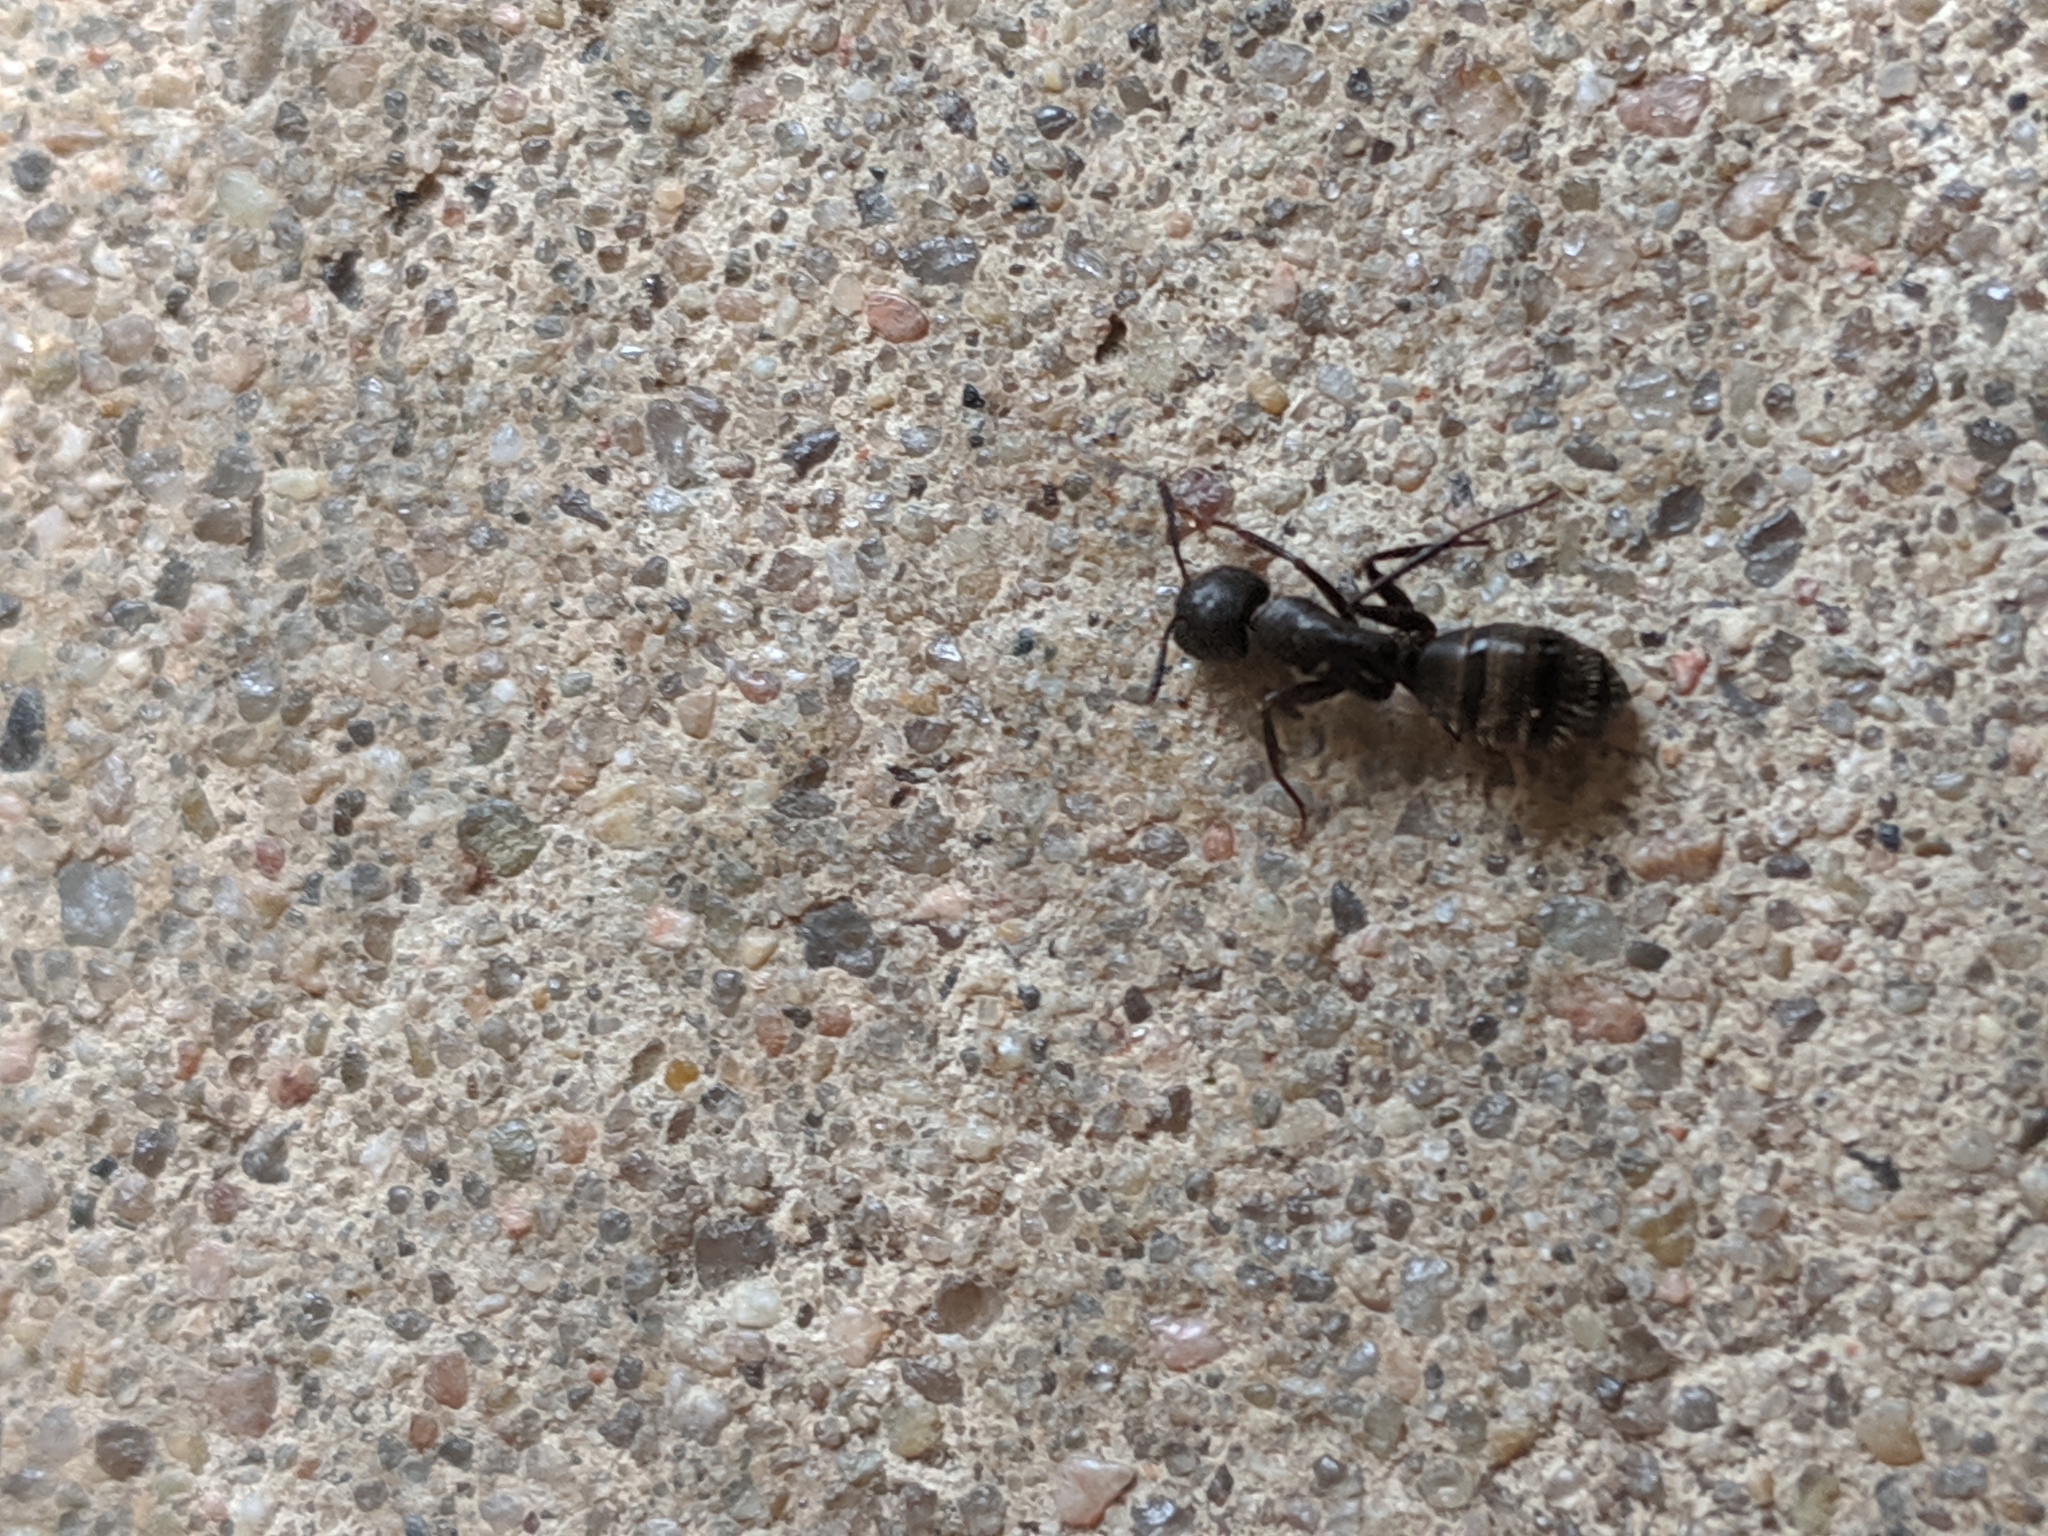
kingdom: Animalia
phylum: Arthropoda
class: Insecta
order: Hymenoptera
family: Formicidae
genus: Camponotus
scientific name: Camponotus pennsylvanicus
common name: Black carpenter ant
